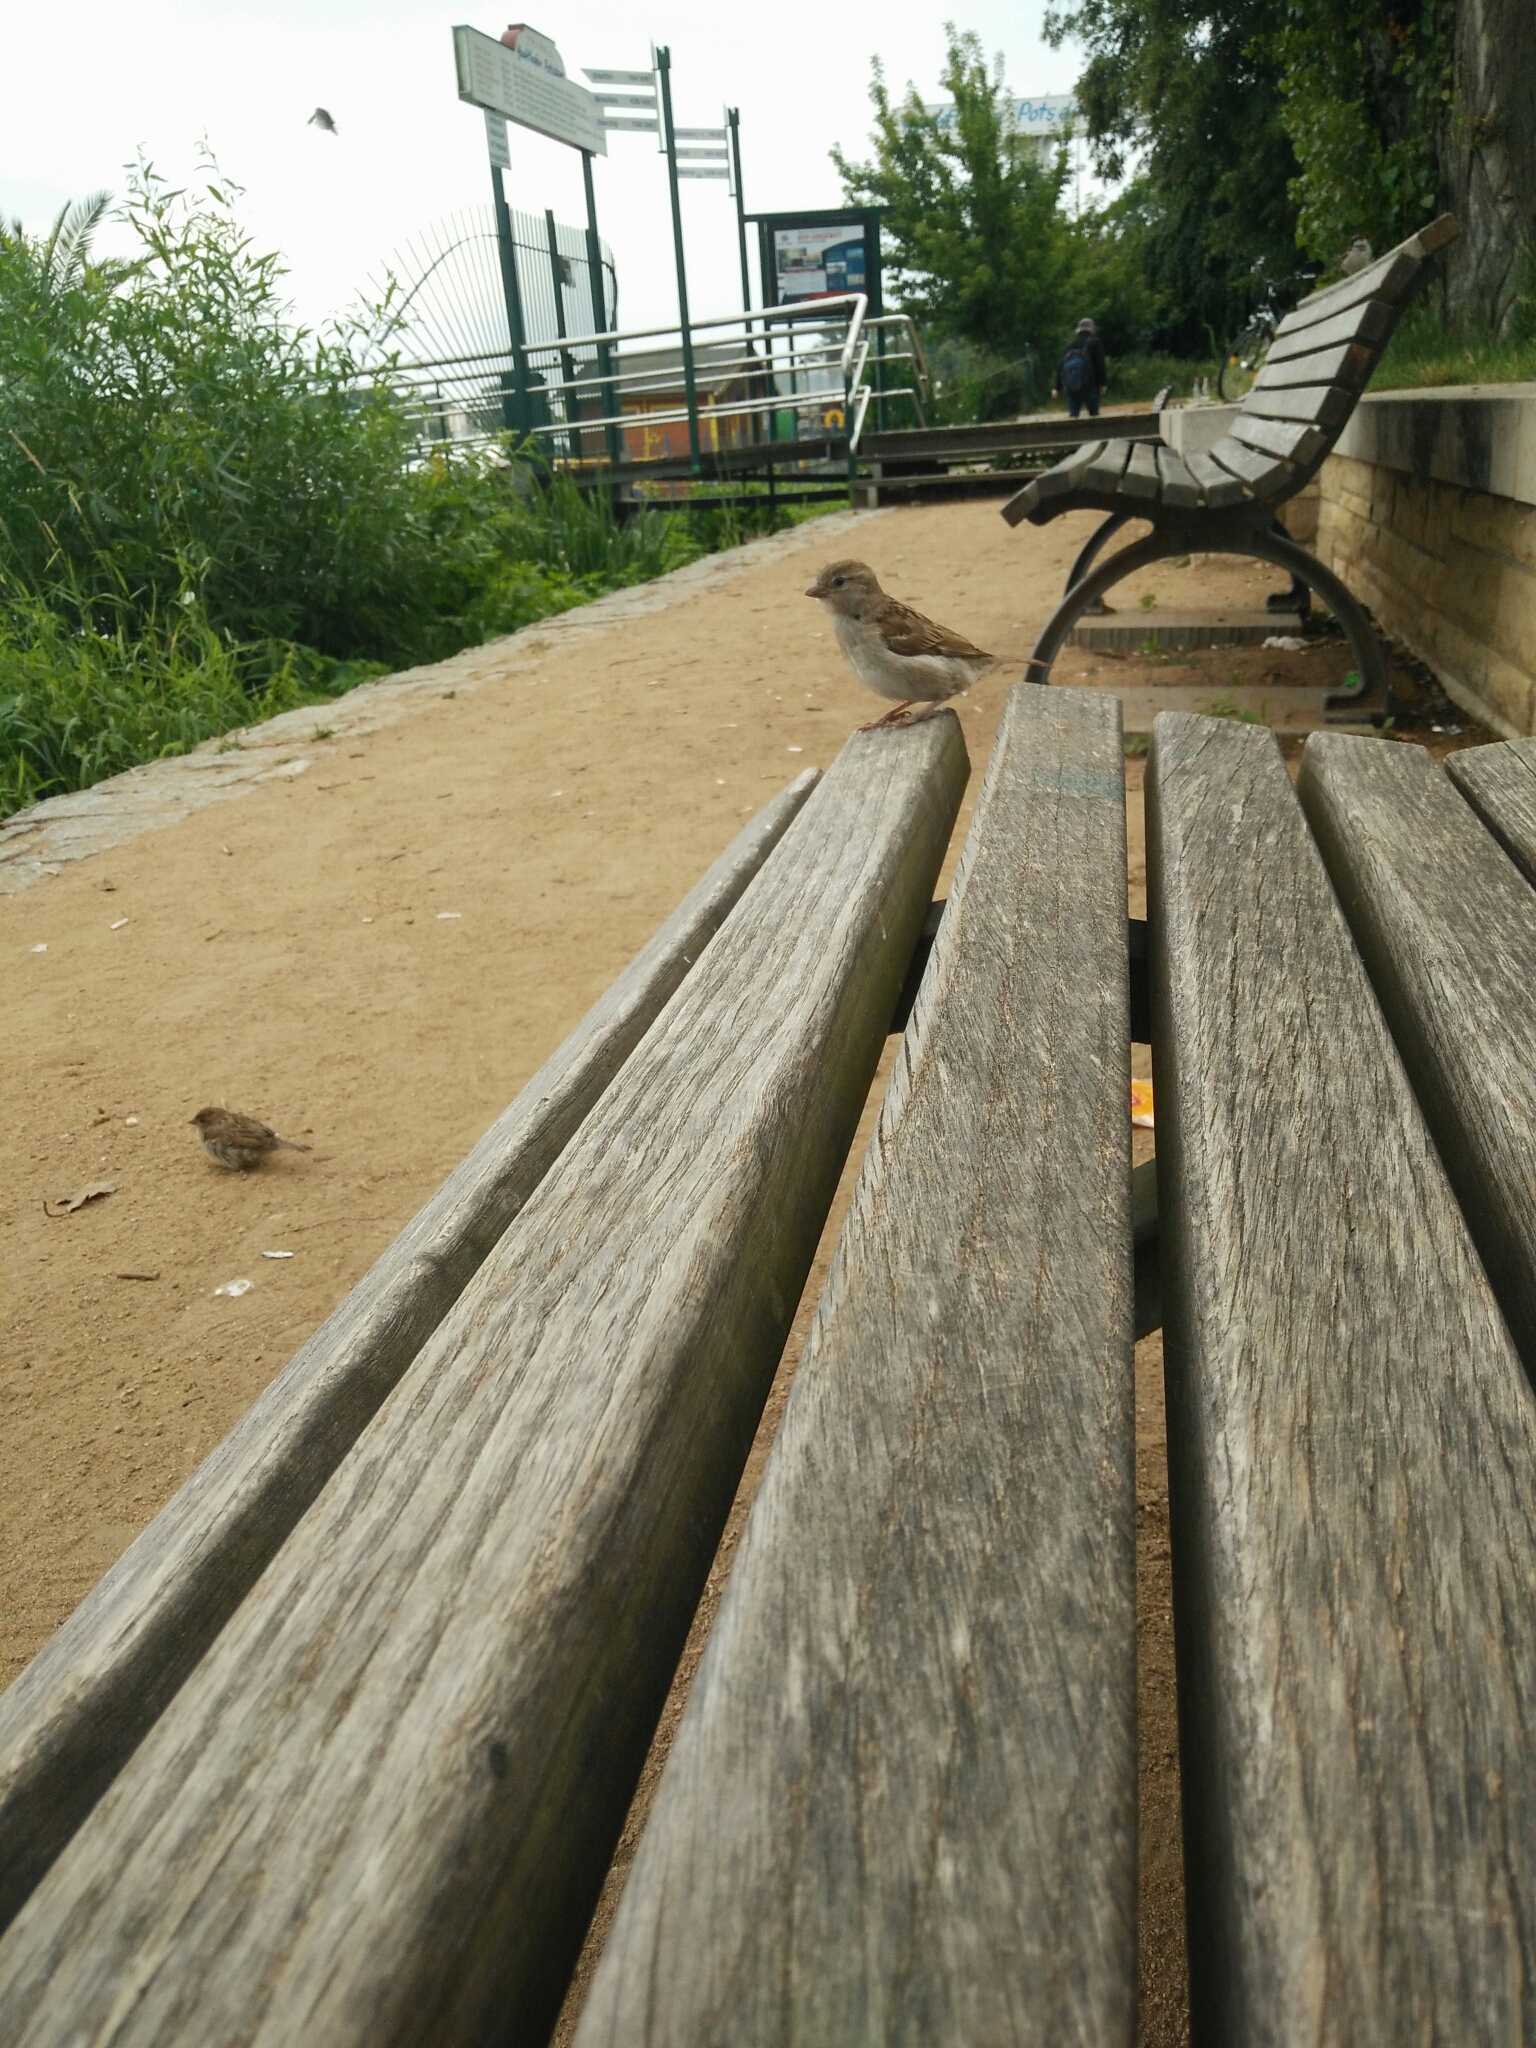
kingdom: Animalia
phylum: Chordata
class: Aves
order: Passeriformes
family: Passeridae
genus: Passer
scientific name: Passer domesticus
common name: House sparrow
